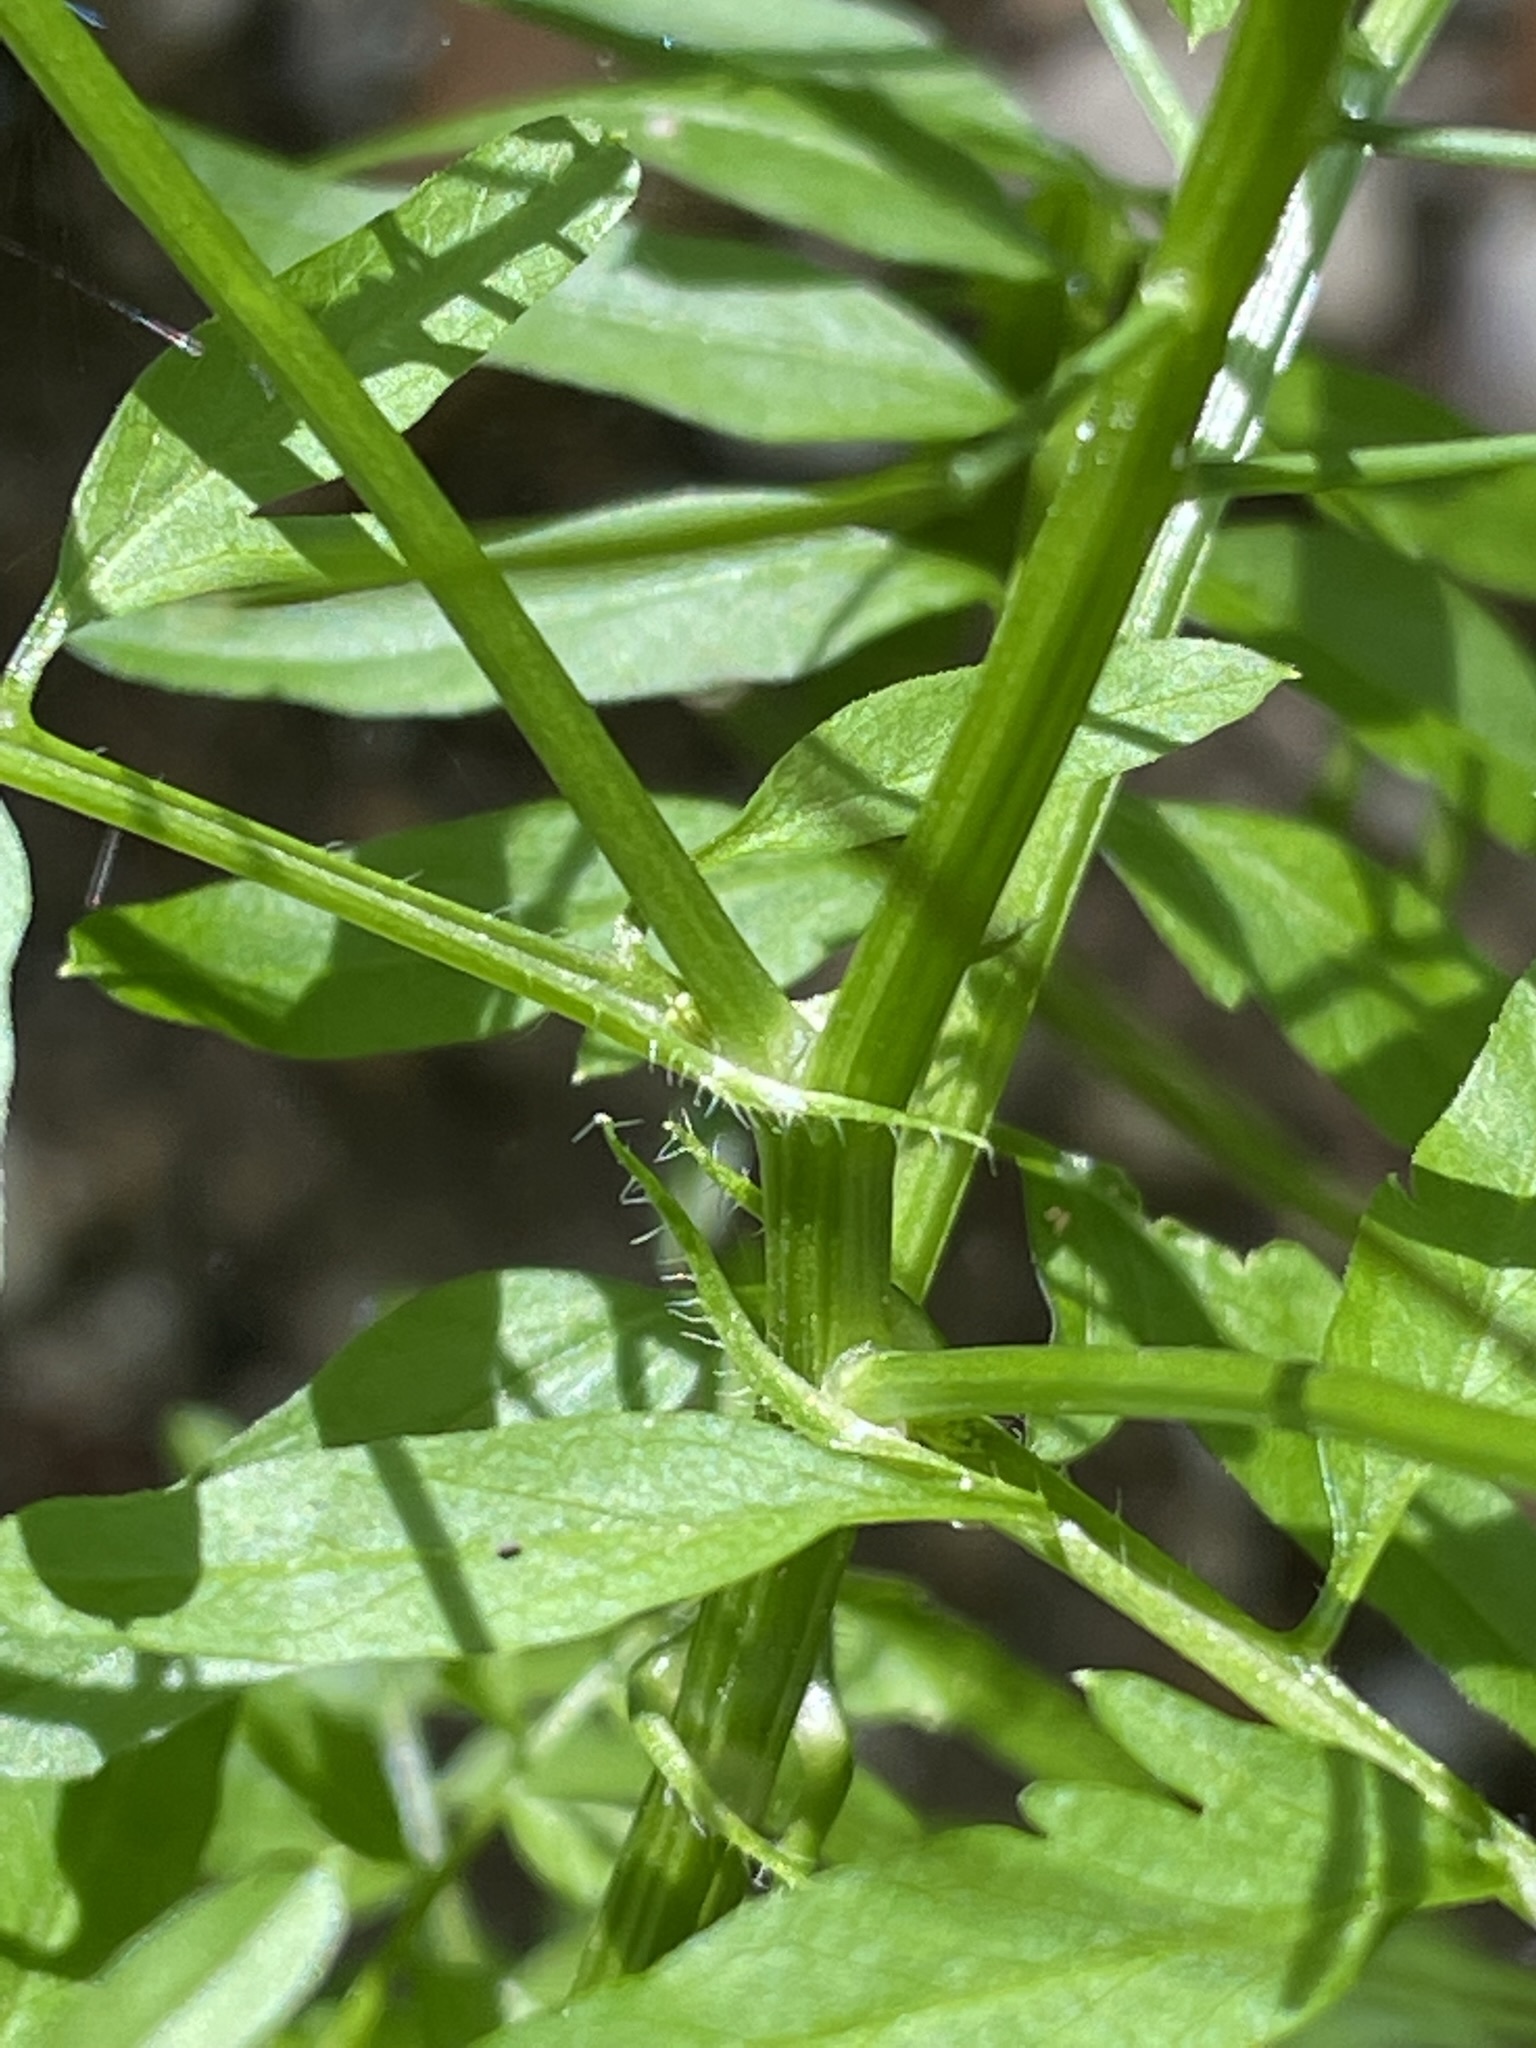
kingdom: Plantae
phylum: Tracheophyta
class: Magnoliopsida
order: Brassicales
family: Brassicaceae
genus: Cardamine
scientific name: Cardamine impatiens
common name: Narrow-leaved bitter-cress
